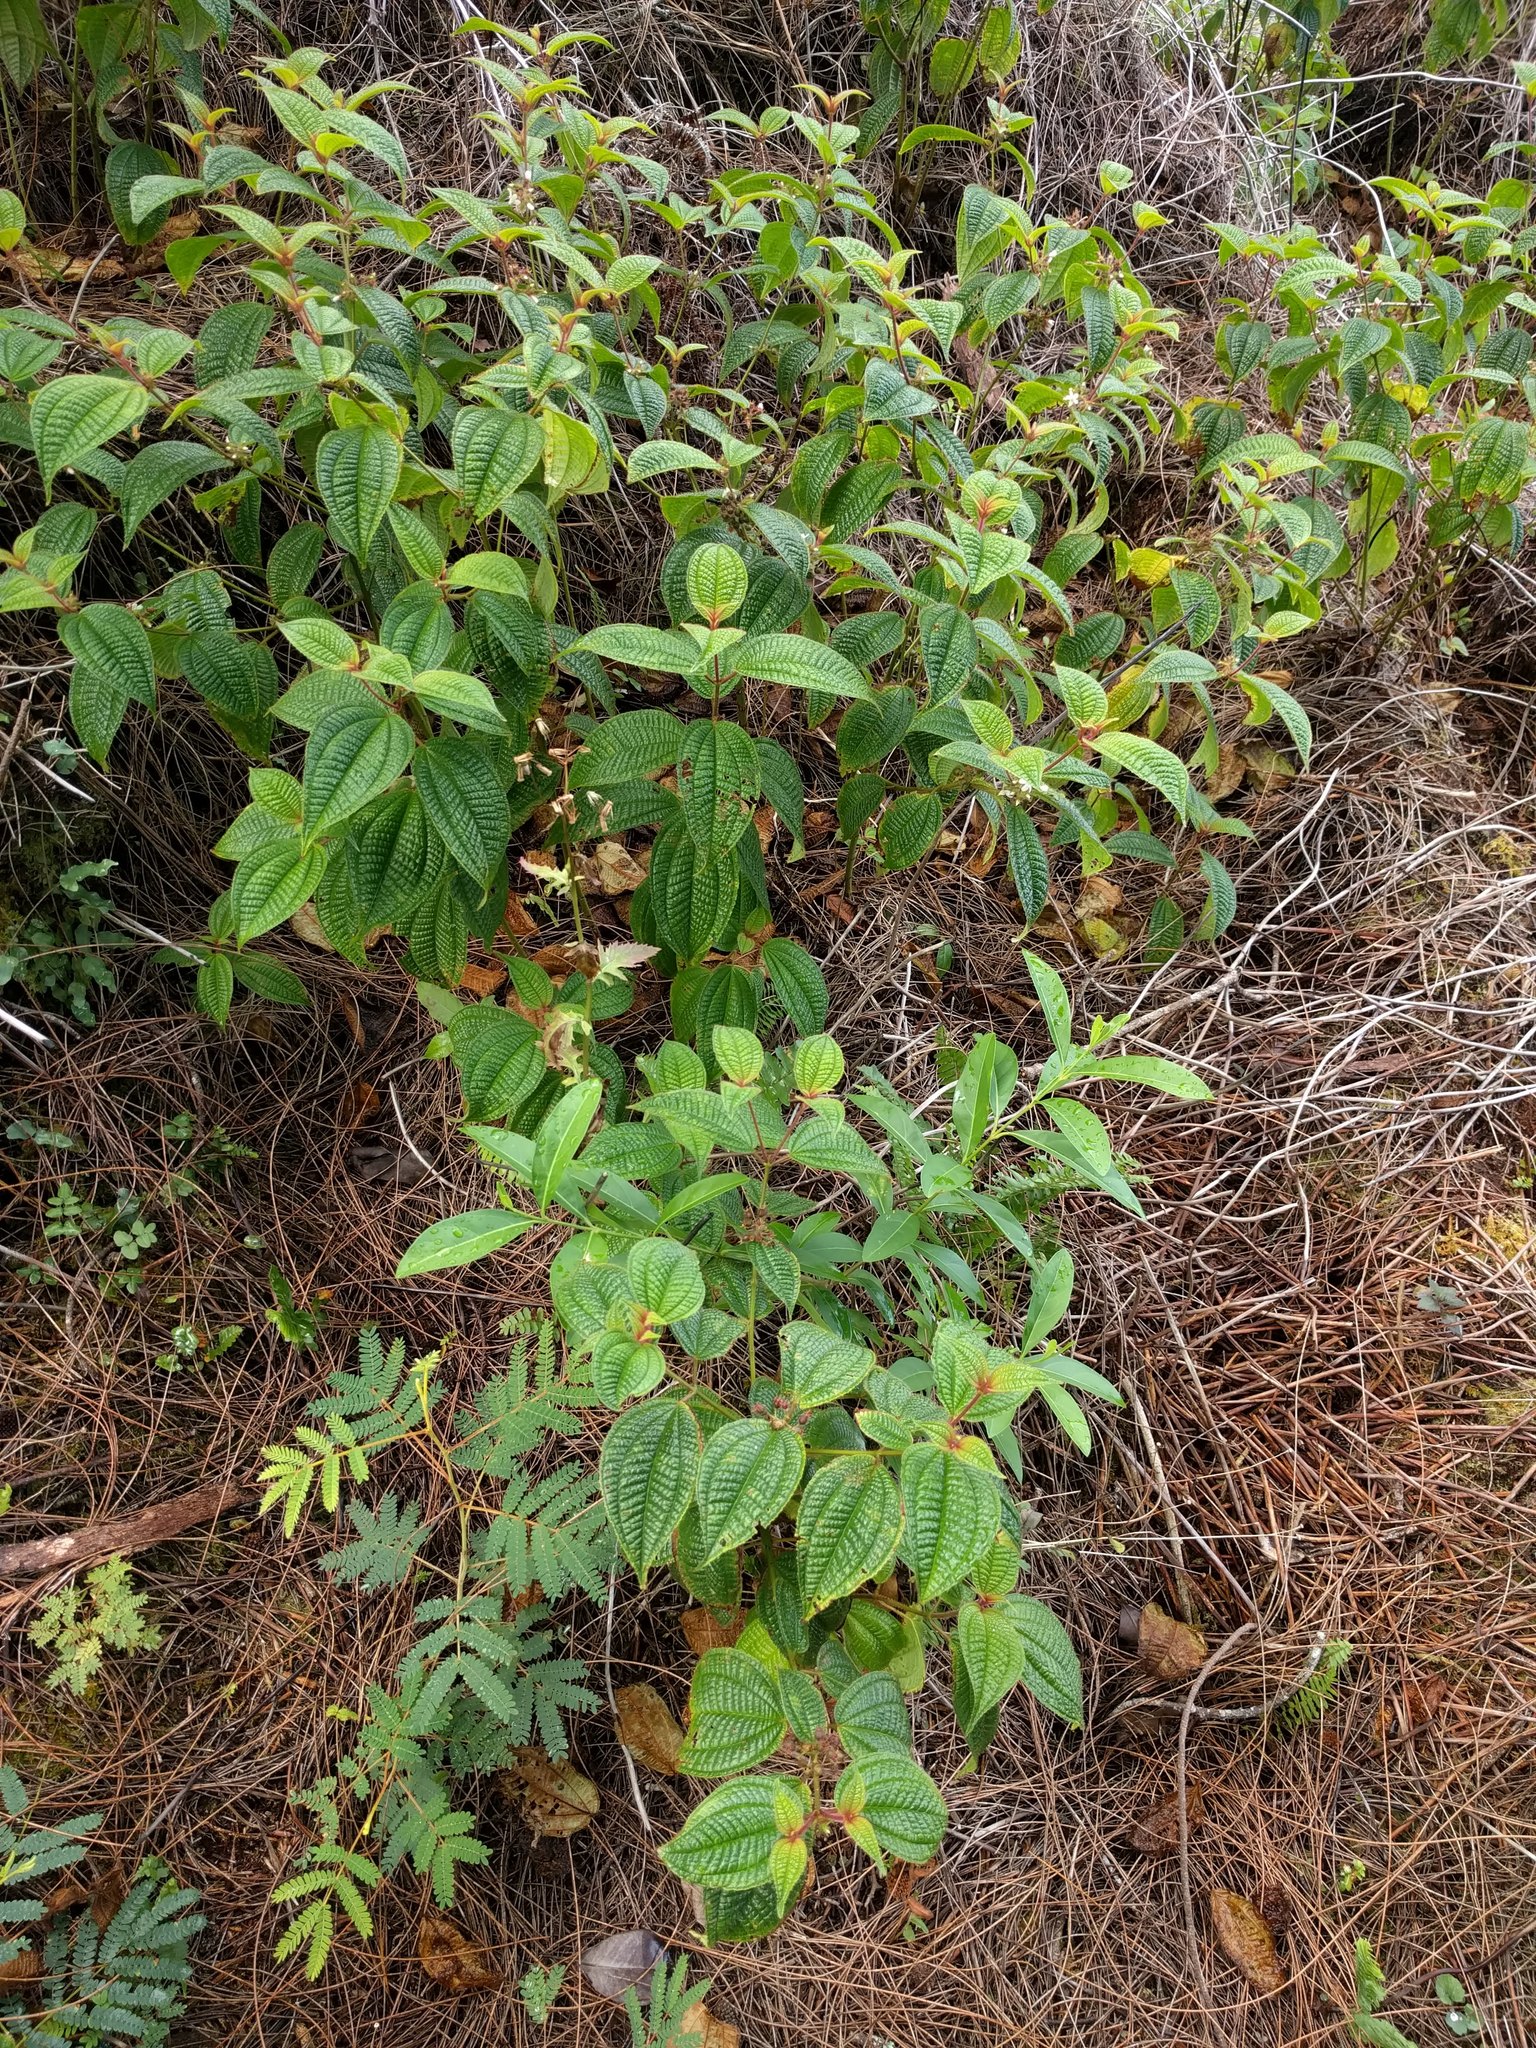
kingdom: Plantae
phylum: Tracheophyta
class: Magnoliopsida
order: Myrtales
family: Melastomataceae
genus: Miconia
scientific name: Miconia crenata
